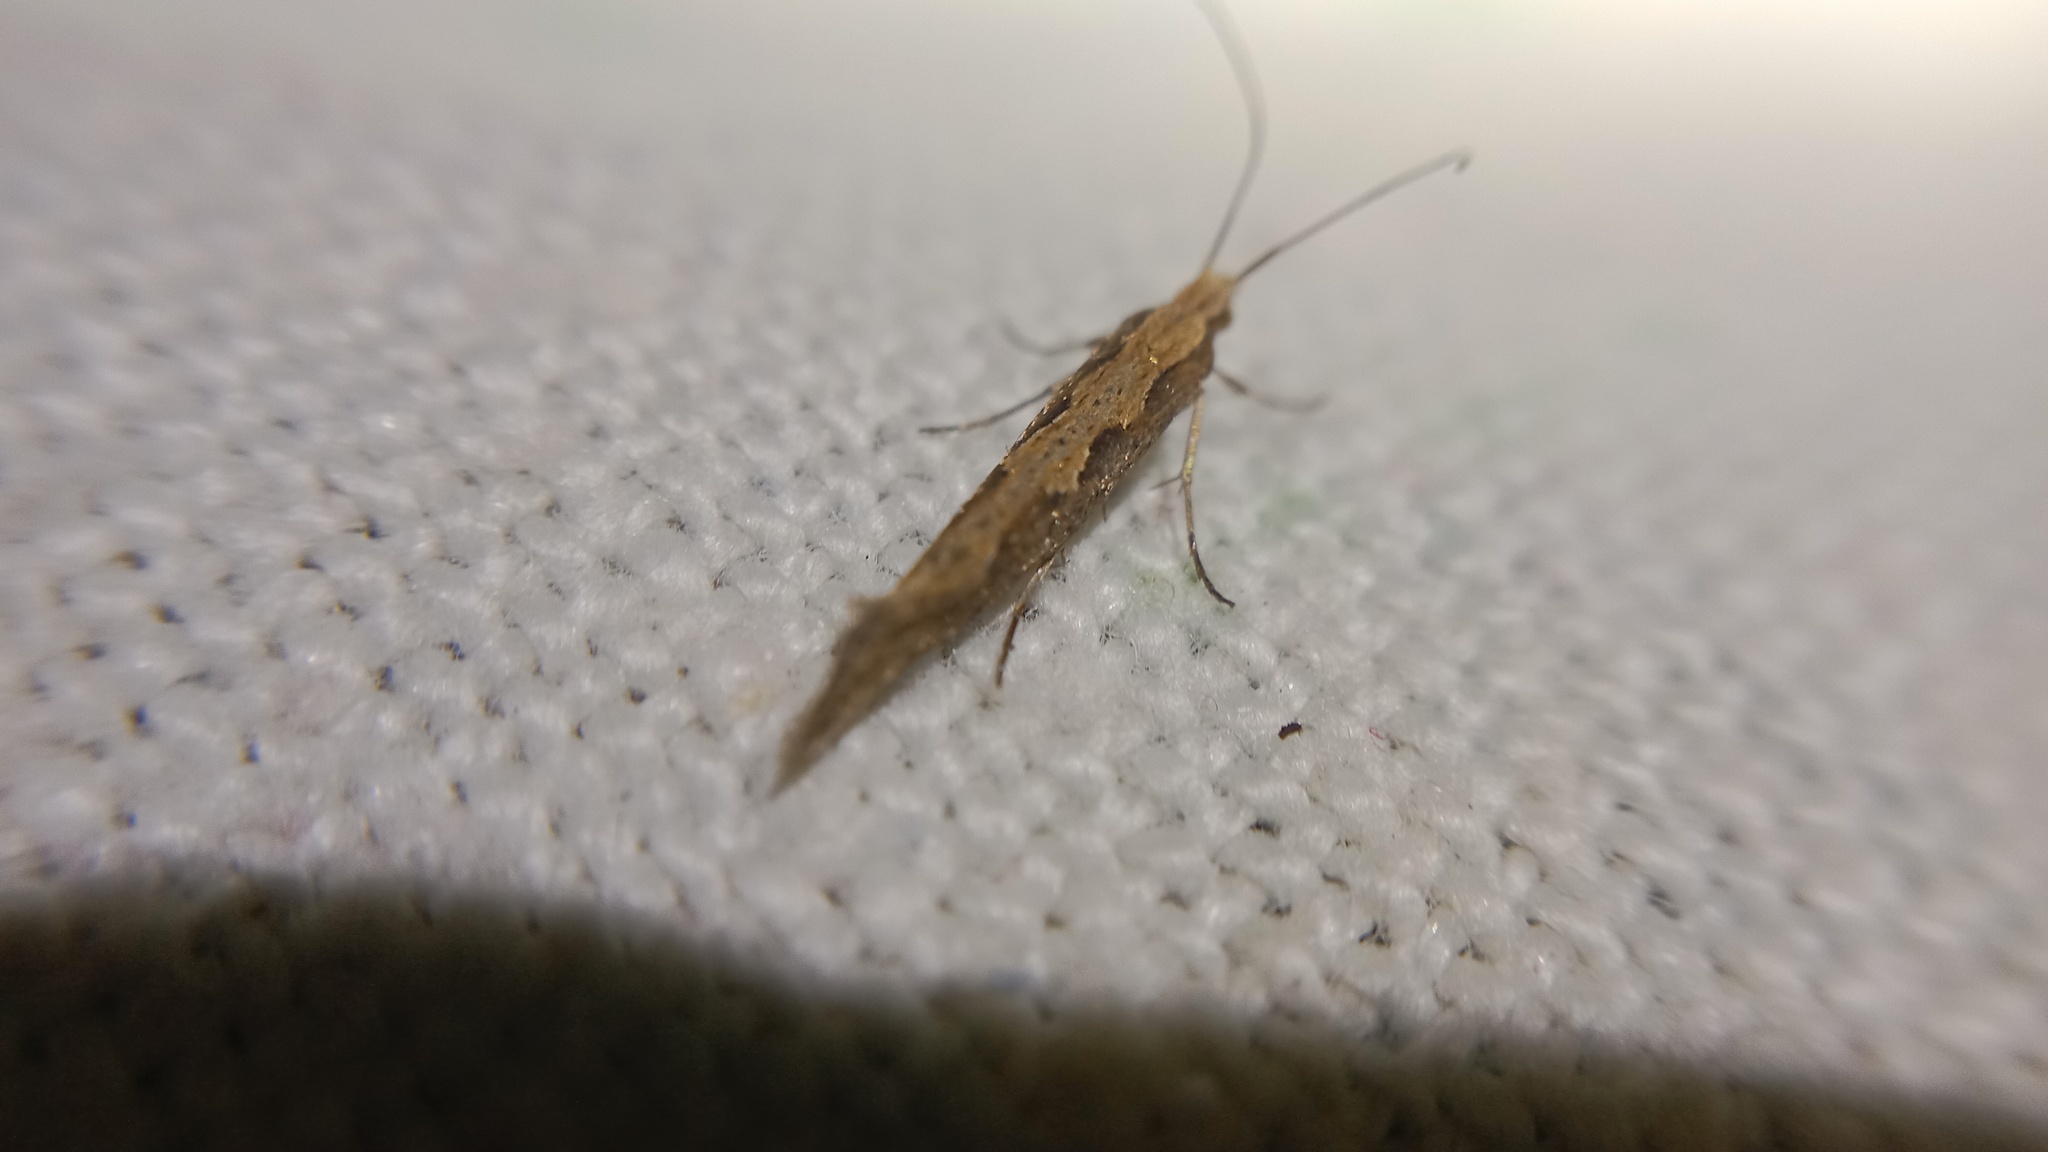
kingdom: Animalia
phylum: Arthropoda
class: Insecta
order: Lepidoptera
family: Plutellidae
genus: Plutella
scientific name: Plutella xylostella
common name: Diamond-back moth
